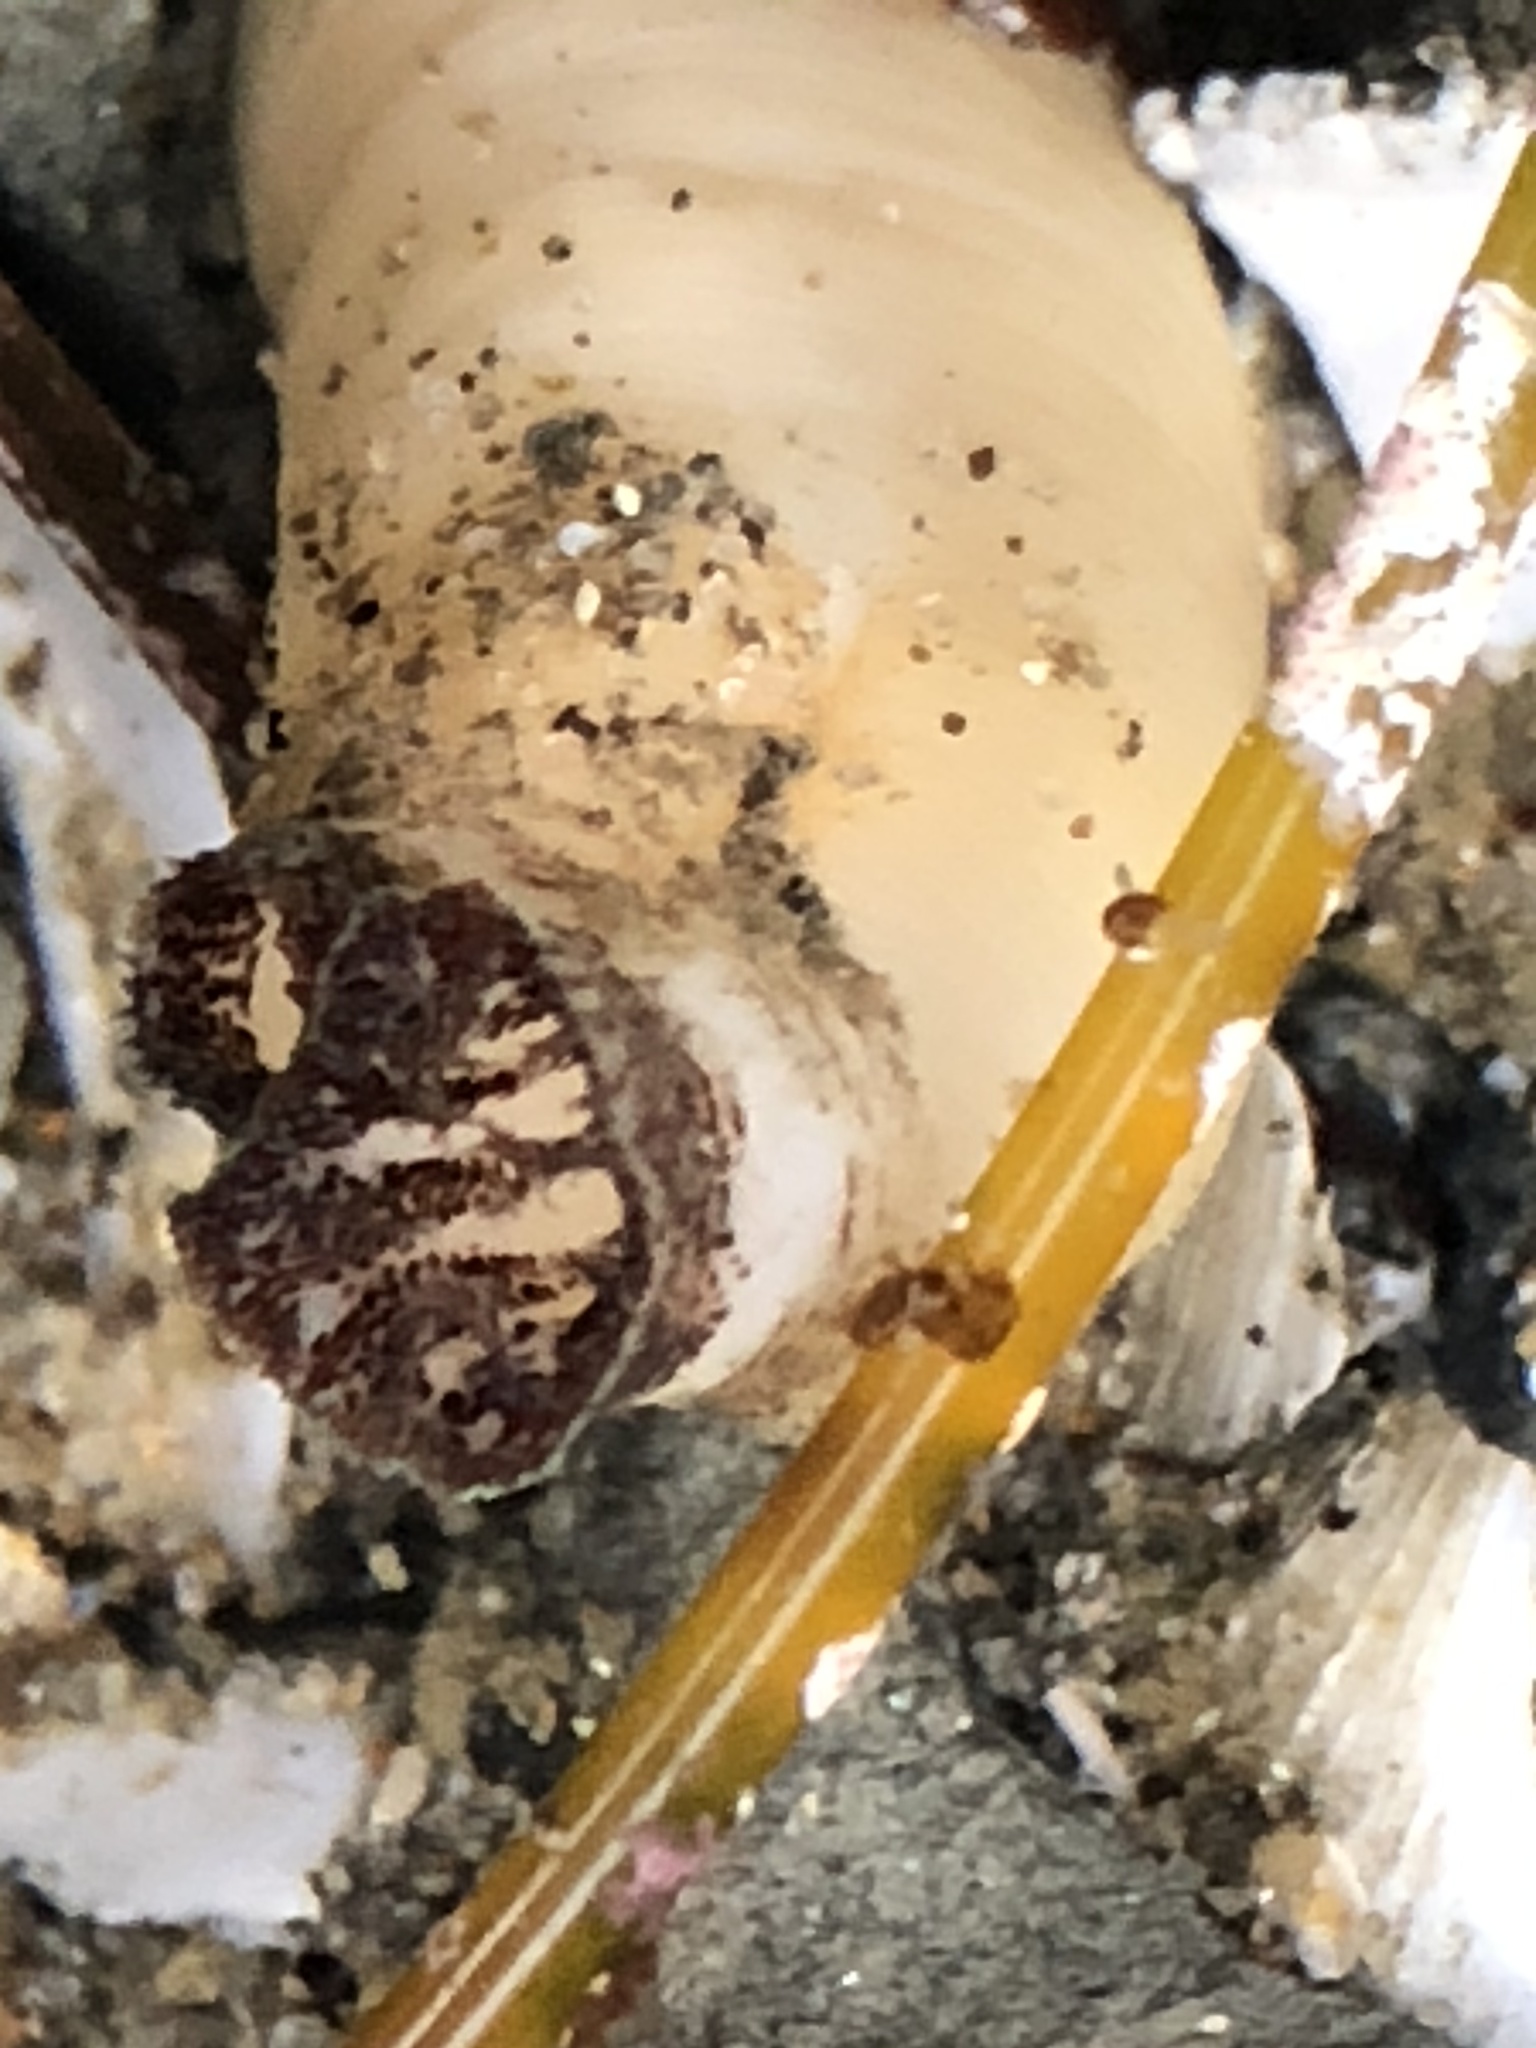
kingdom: Animalia
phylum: Mollusca
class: Bivalvia
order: Myida
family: Pholadidae
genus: Parapholas
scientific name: Parapholas californica
